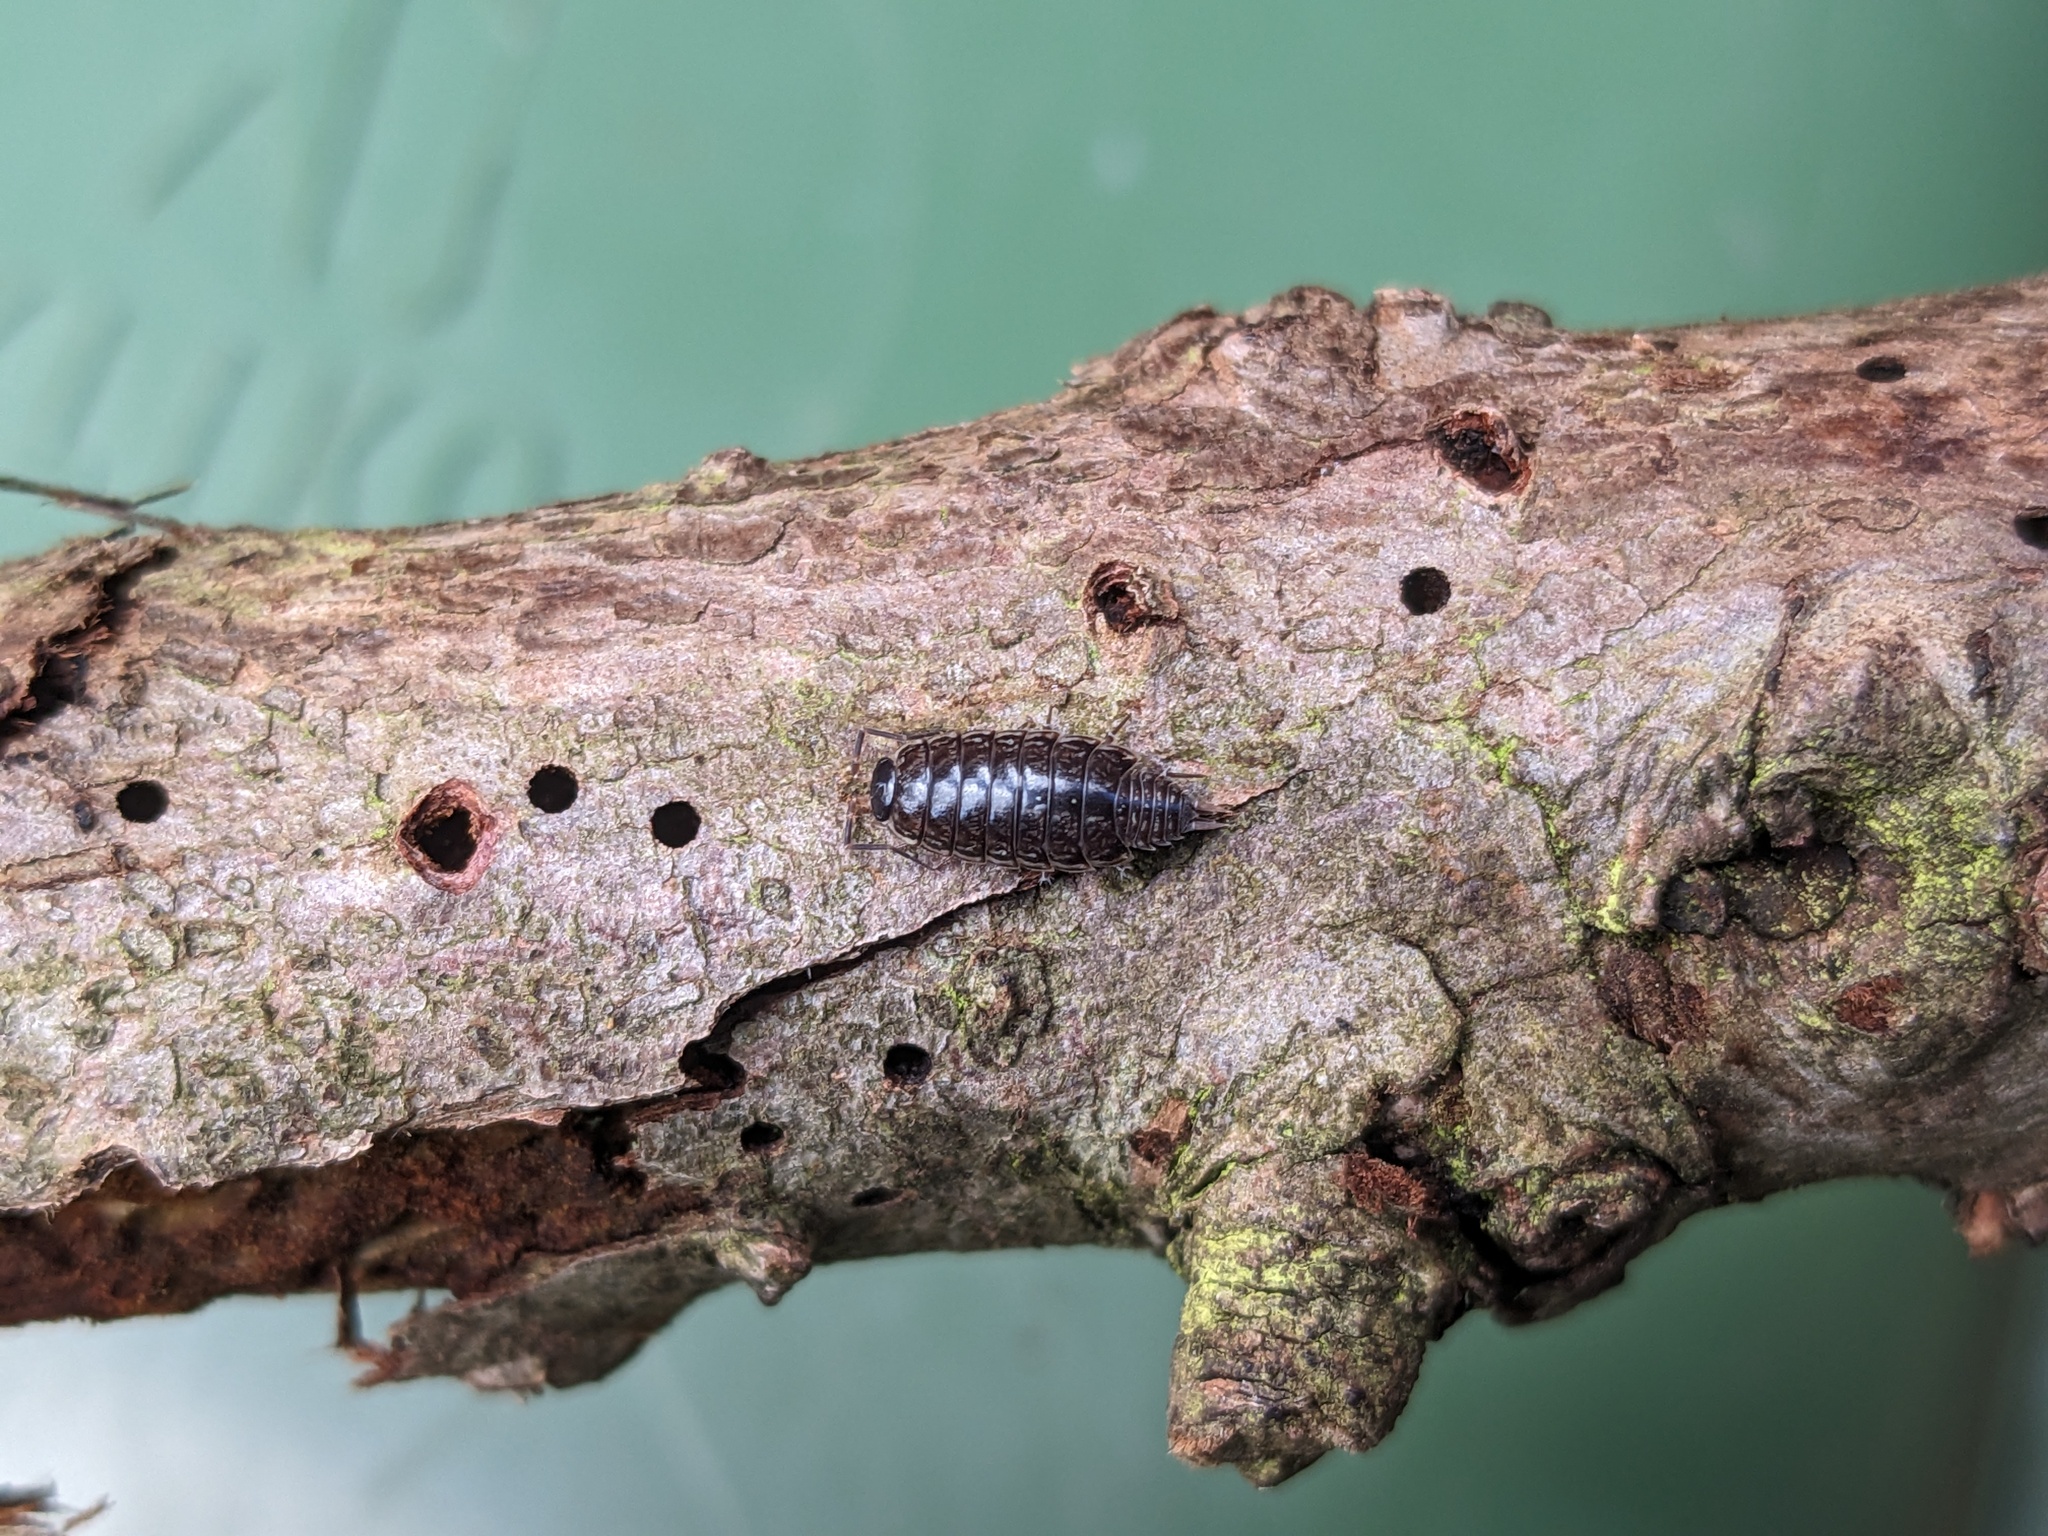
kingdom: Animalia
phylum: Arthropoda
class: Malacostraca
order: Isopoda
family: Philosciidae
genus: Philoscia
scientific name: Philoscia muscorum
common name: Common striped woodlouse
